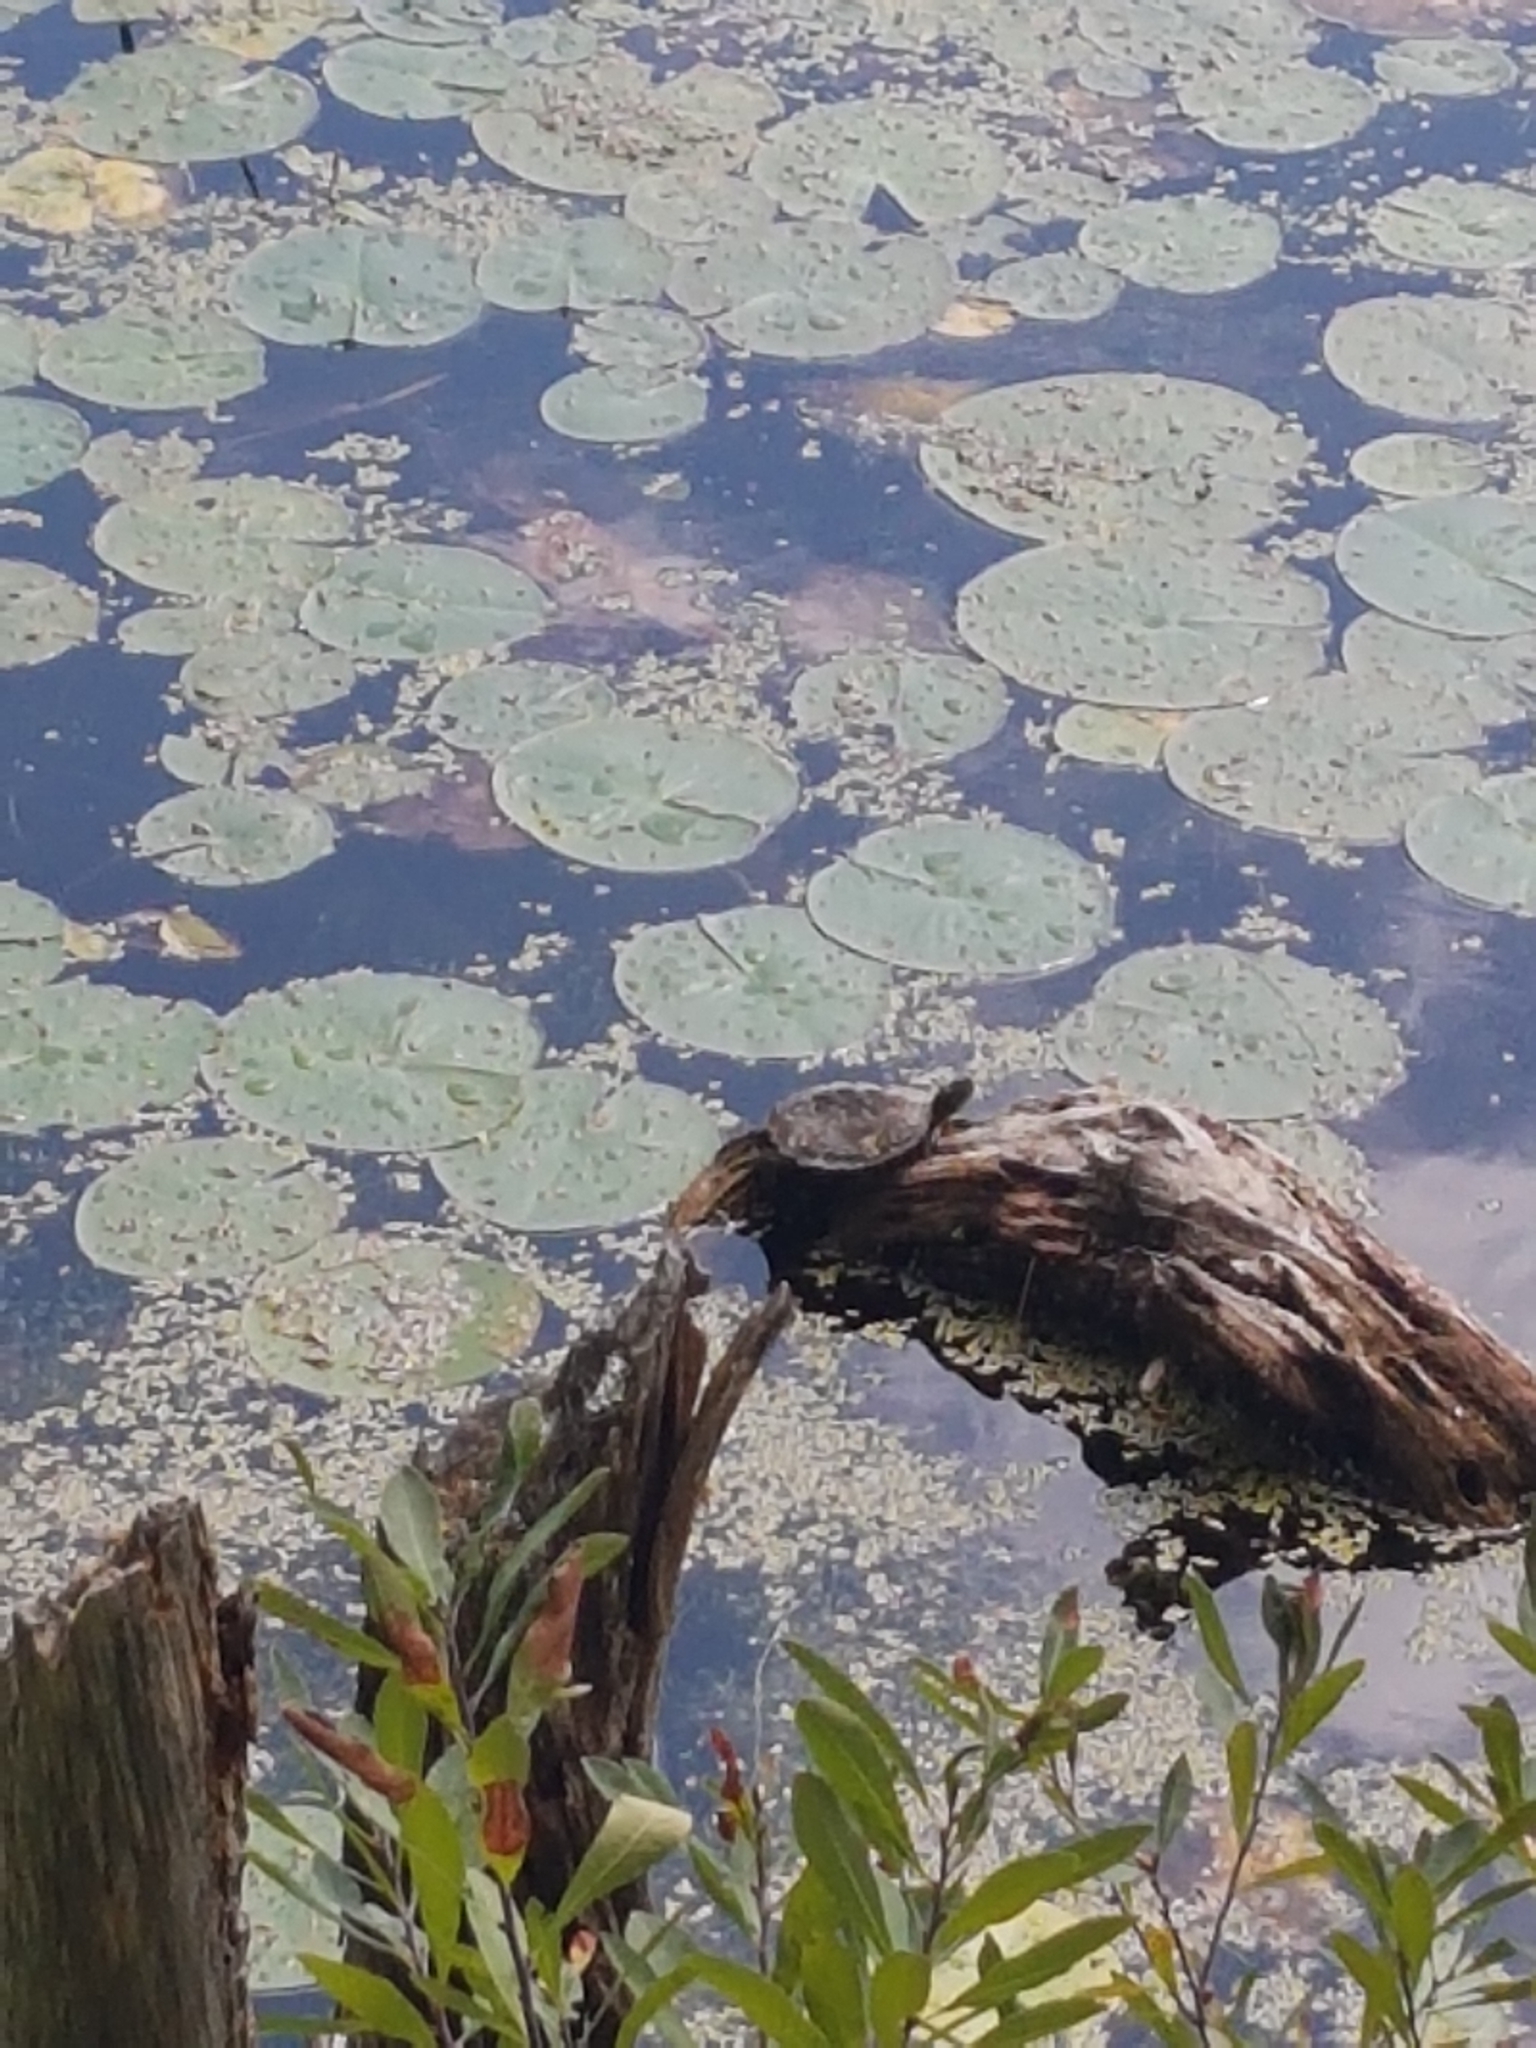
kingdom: Animalia
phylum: Chordata
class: Testudines
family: Emydidae
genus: Graptemys
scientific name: Graptemys geographica
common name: Common map turtle
